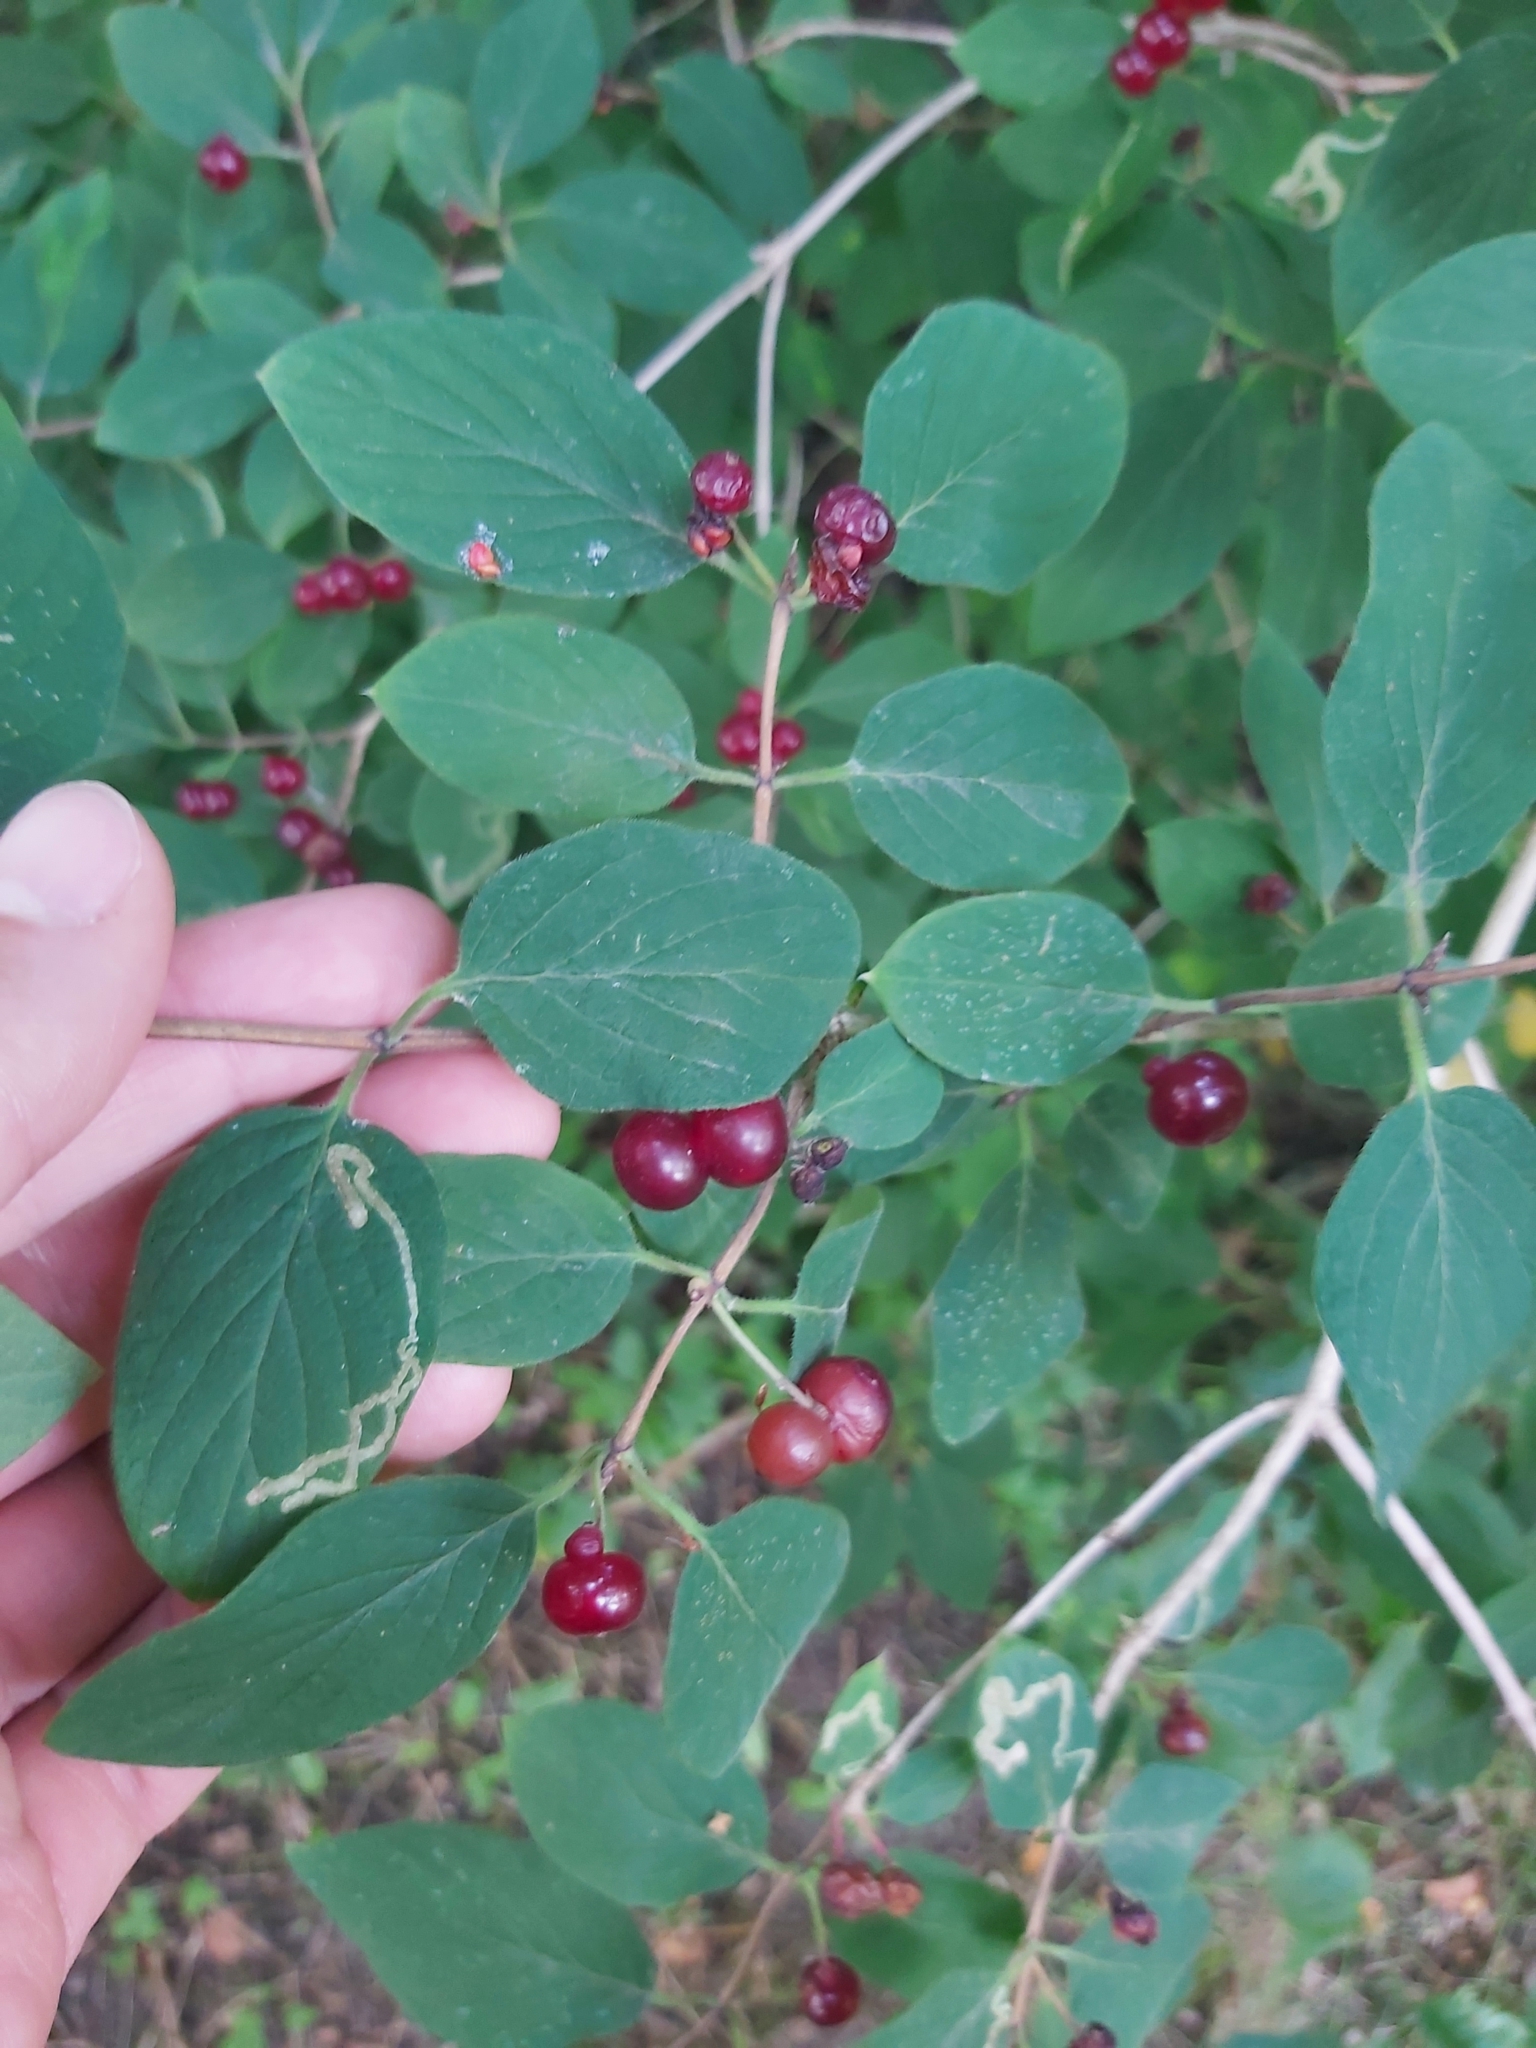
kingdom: Plantae
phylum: Tracheophyta
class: Magnoliopsida
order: Dipsacales
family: Caprifoliaceae
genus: Lonicera
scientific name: Lonicera xylosteum
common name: Fly honeysuckle
